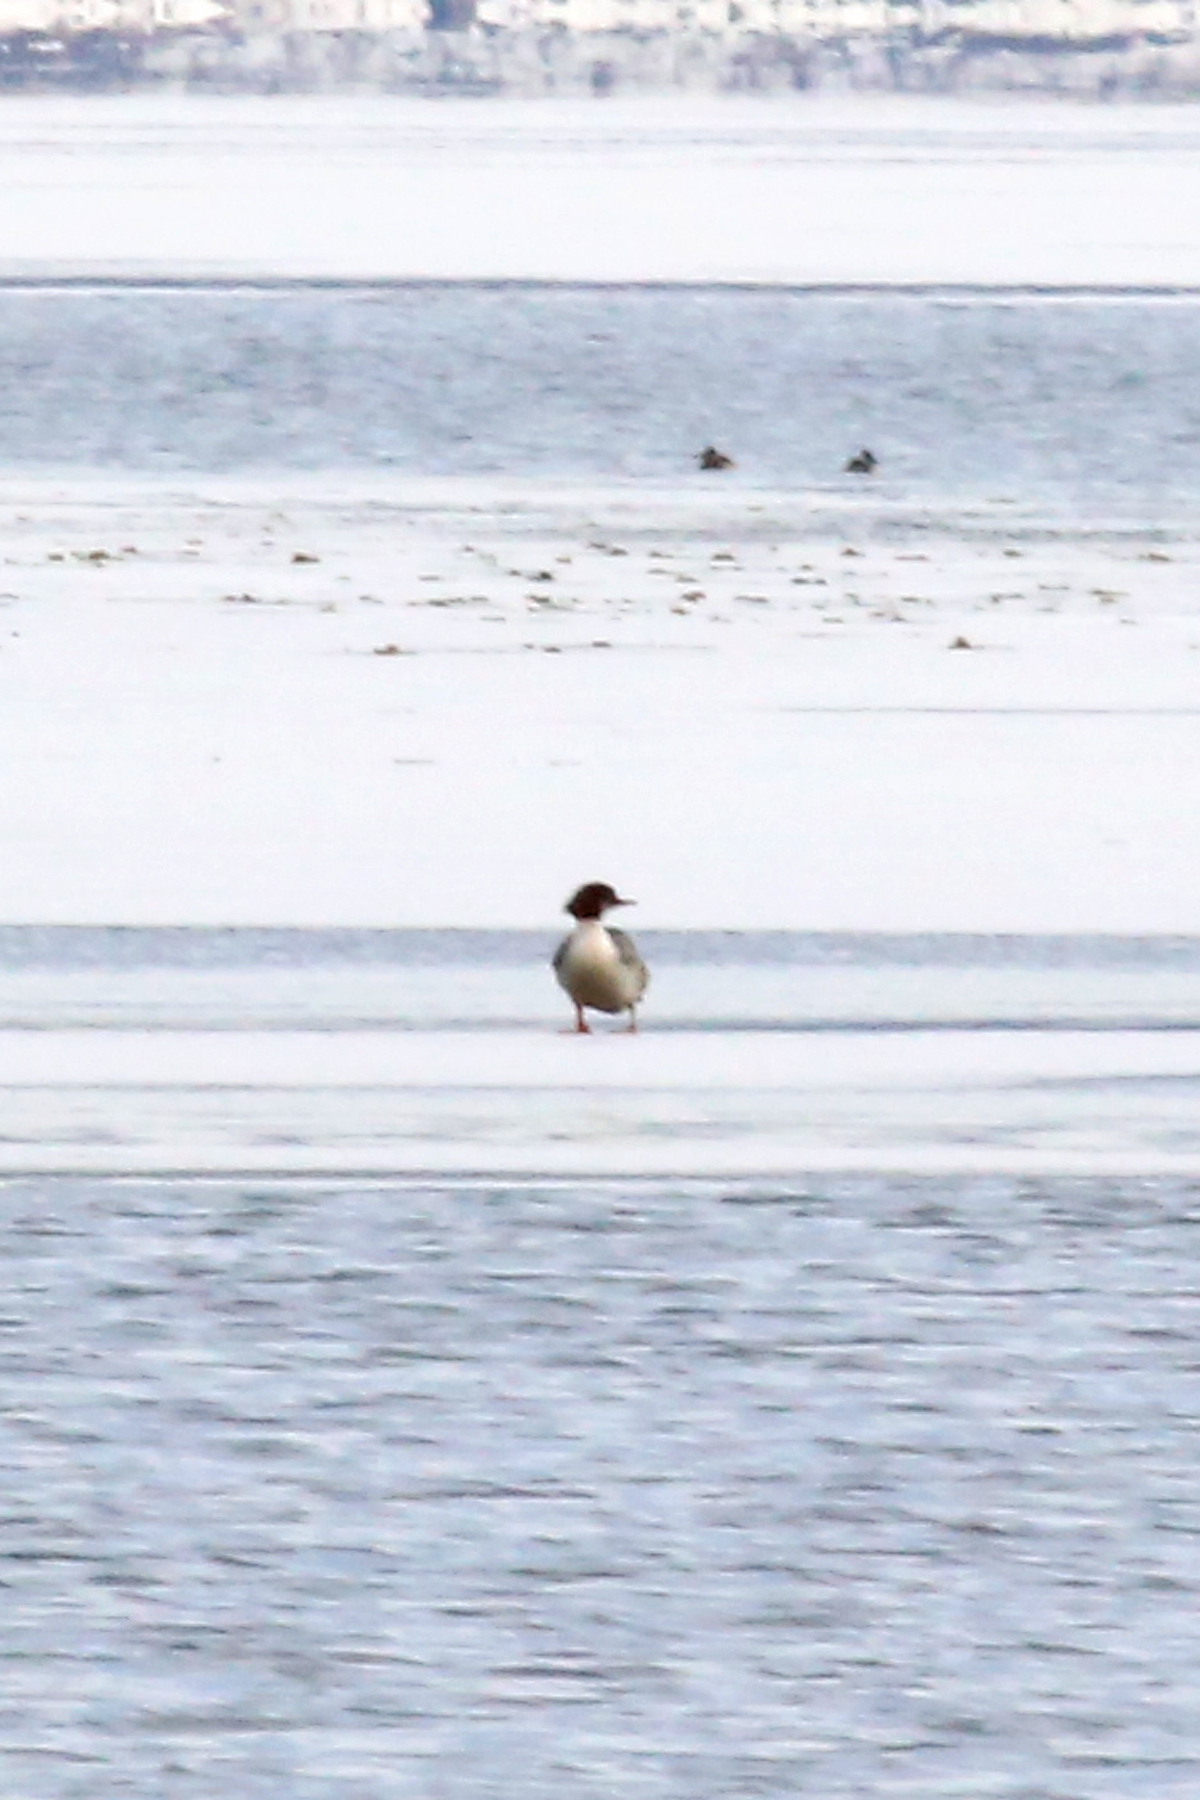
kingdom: Animalia
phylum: Chordata
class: Aves
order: Anseriformes
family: Anatidae
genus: Mergus
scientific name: Mergus merganser
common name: Common merganser
